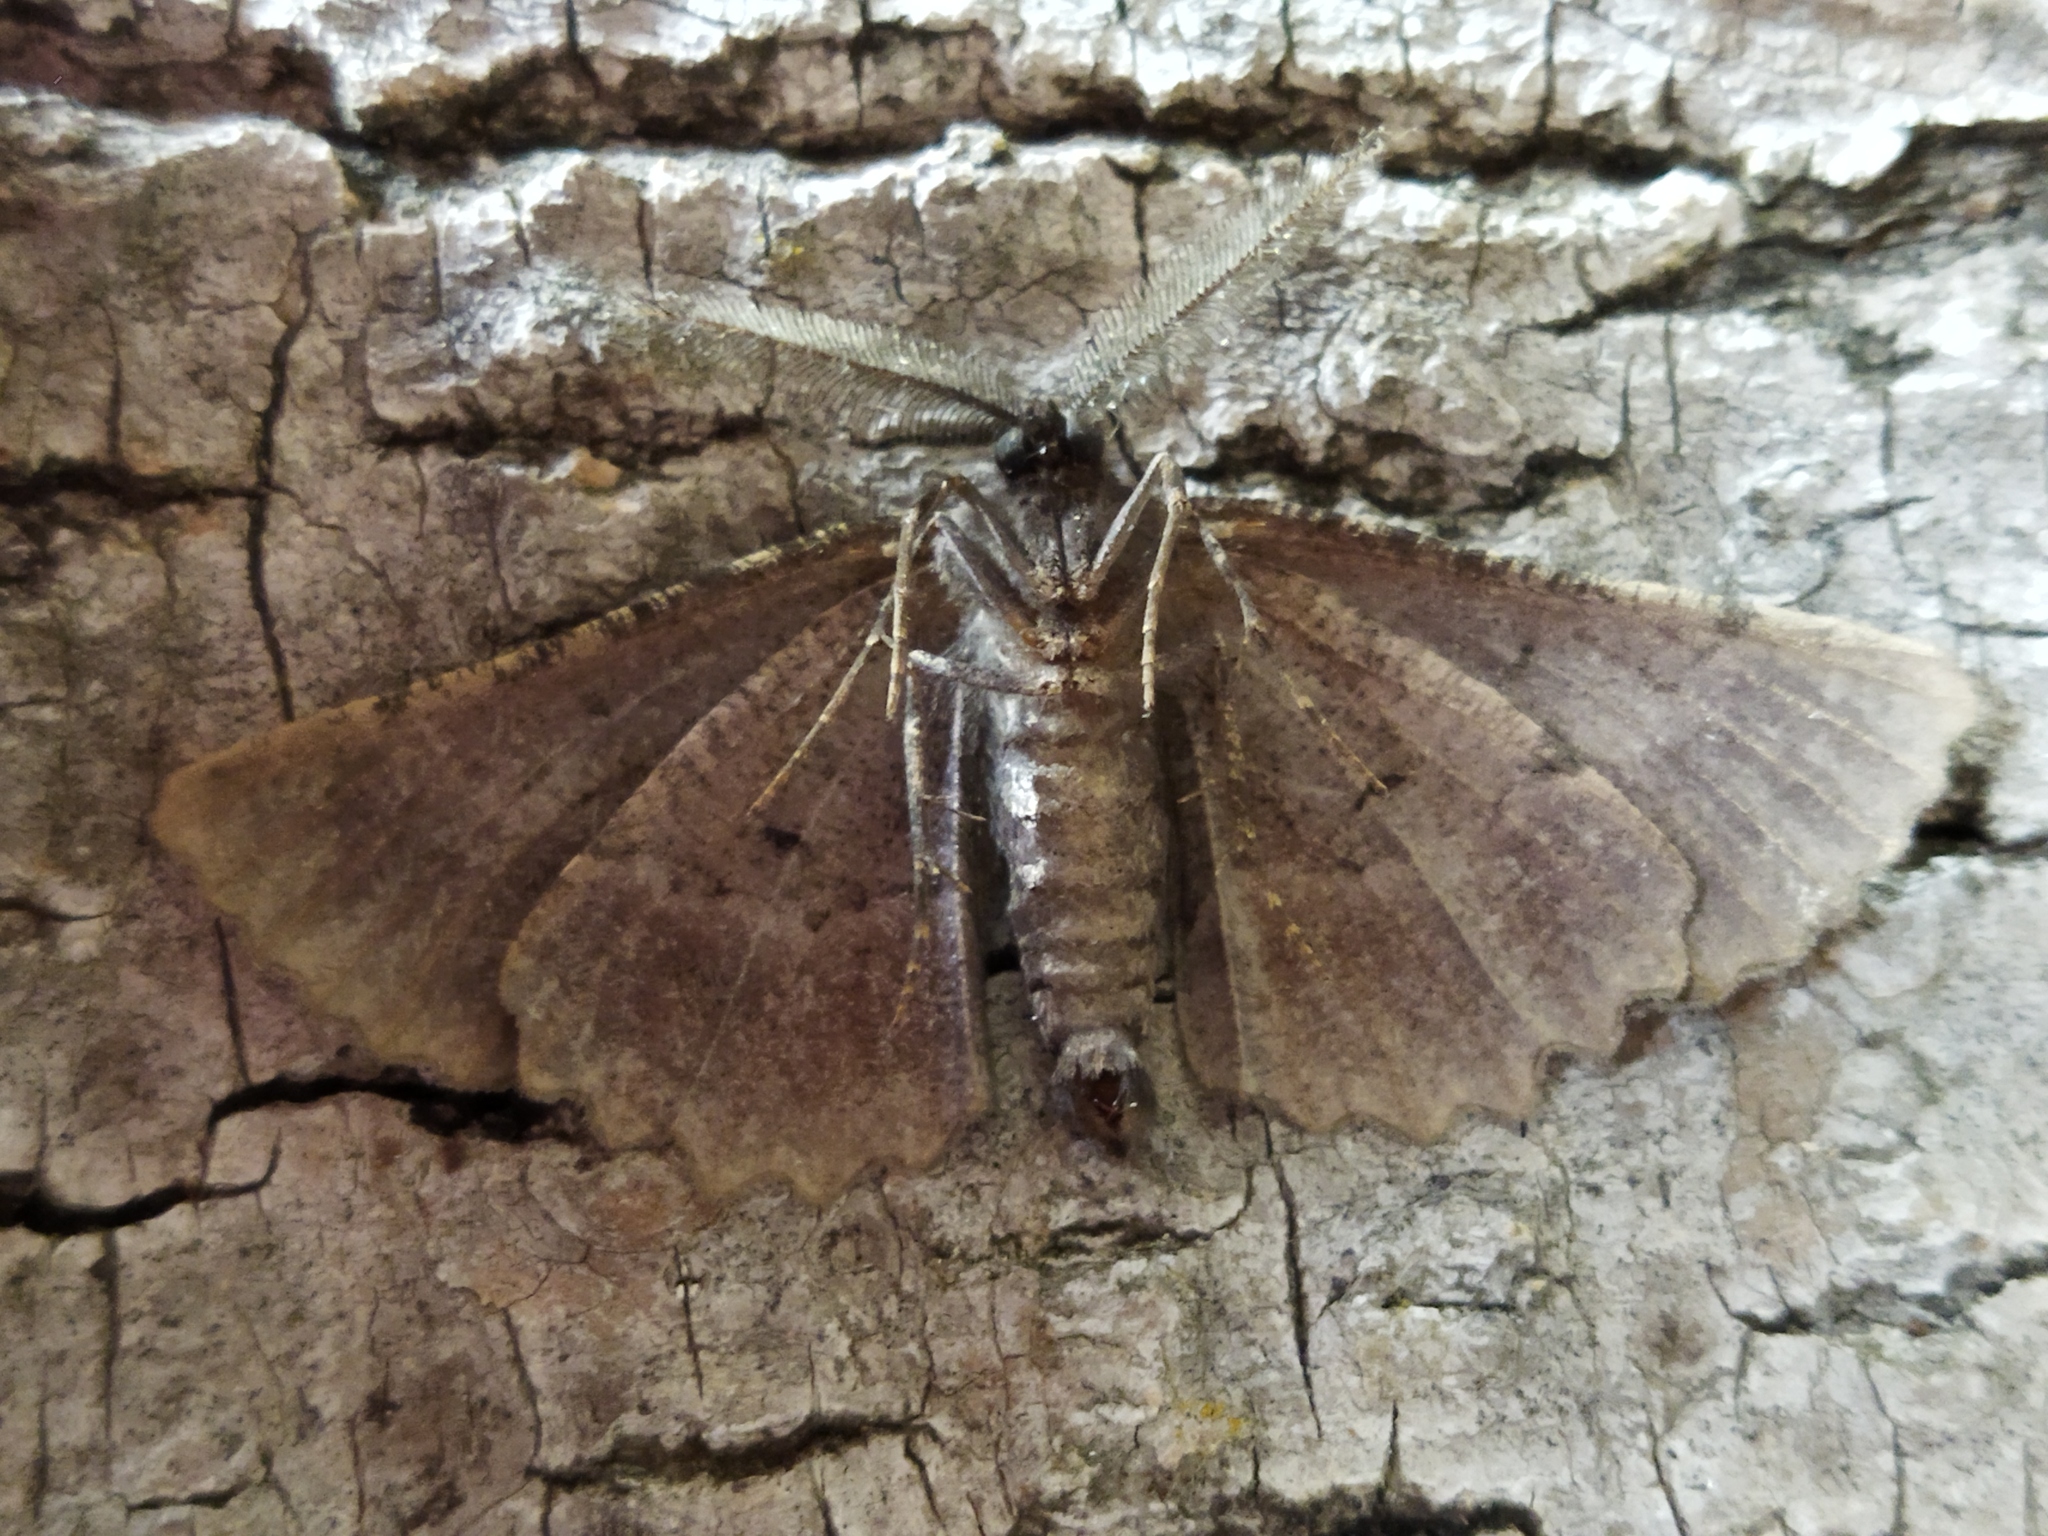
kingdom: Animalia
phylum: Arthropoda
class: Insecta
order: Lepidoptera
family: Geometridae
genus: Nychiodes
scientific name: Nychiodes waltheri
